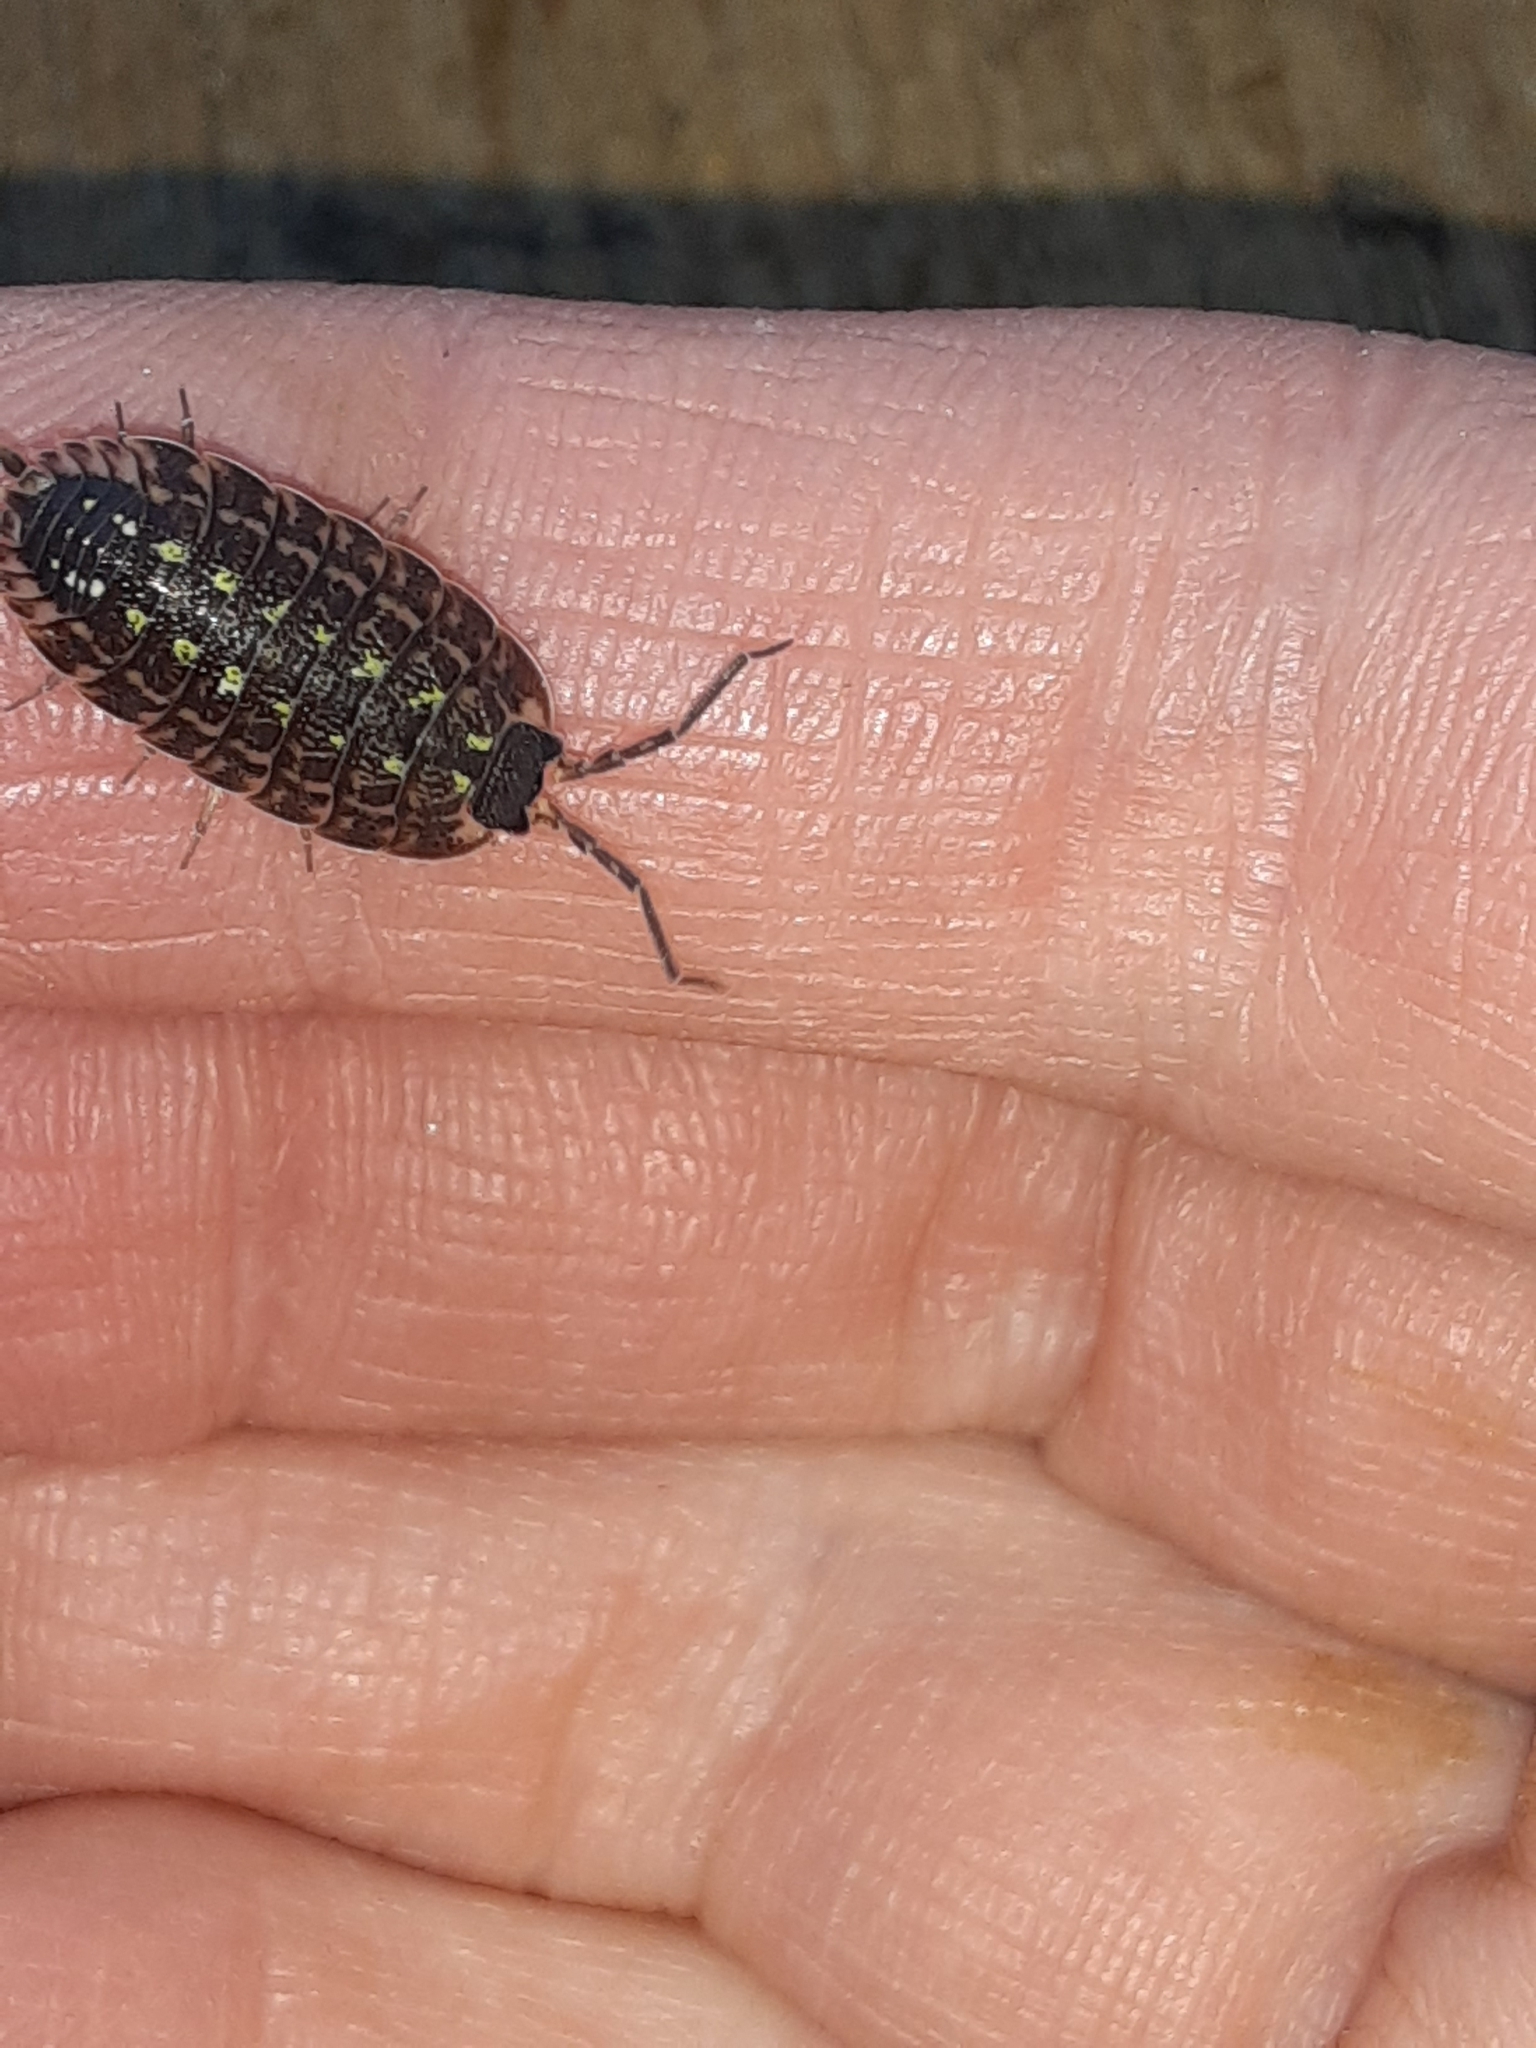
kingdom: Animalia
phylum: Arthropoda
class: Malacostraca
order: Isopoda
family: Porcellionidae
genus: Porcellio
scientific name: Porcellio spinicornis
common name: Painted woodlouse
